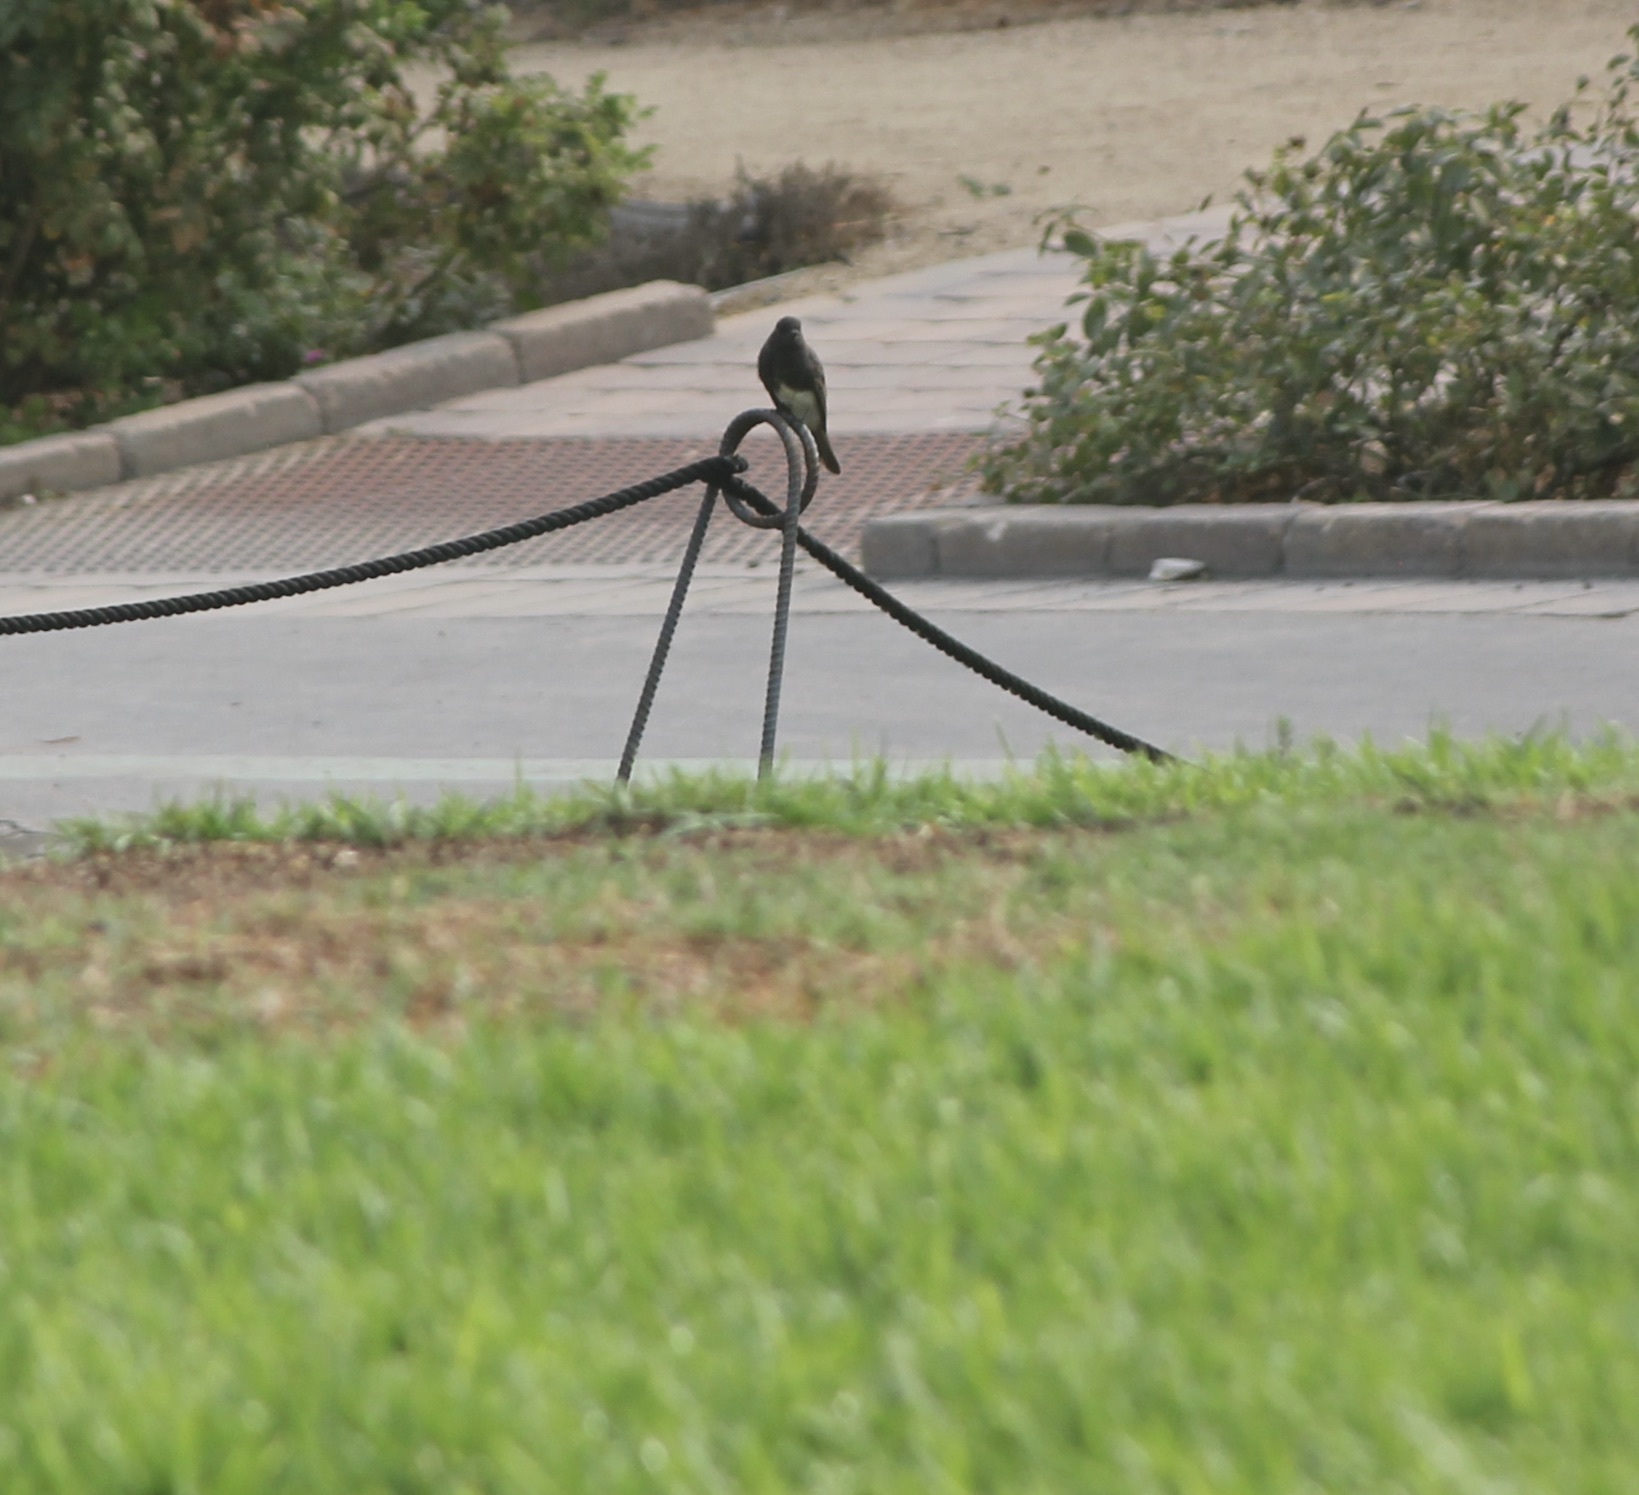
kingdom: Animalia
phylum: Chordata
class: Aves
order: Passeriformes
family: Tyrannidae
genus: Sayornis
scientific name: Sayornis nigricans
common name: Black phoebe
